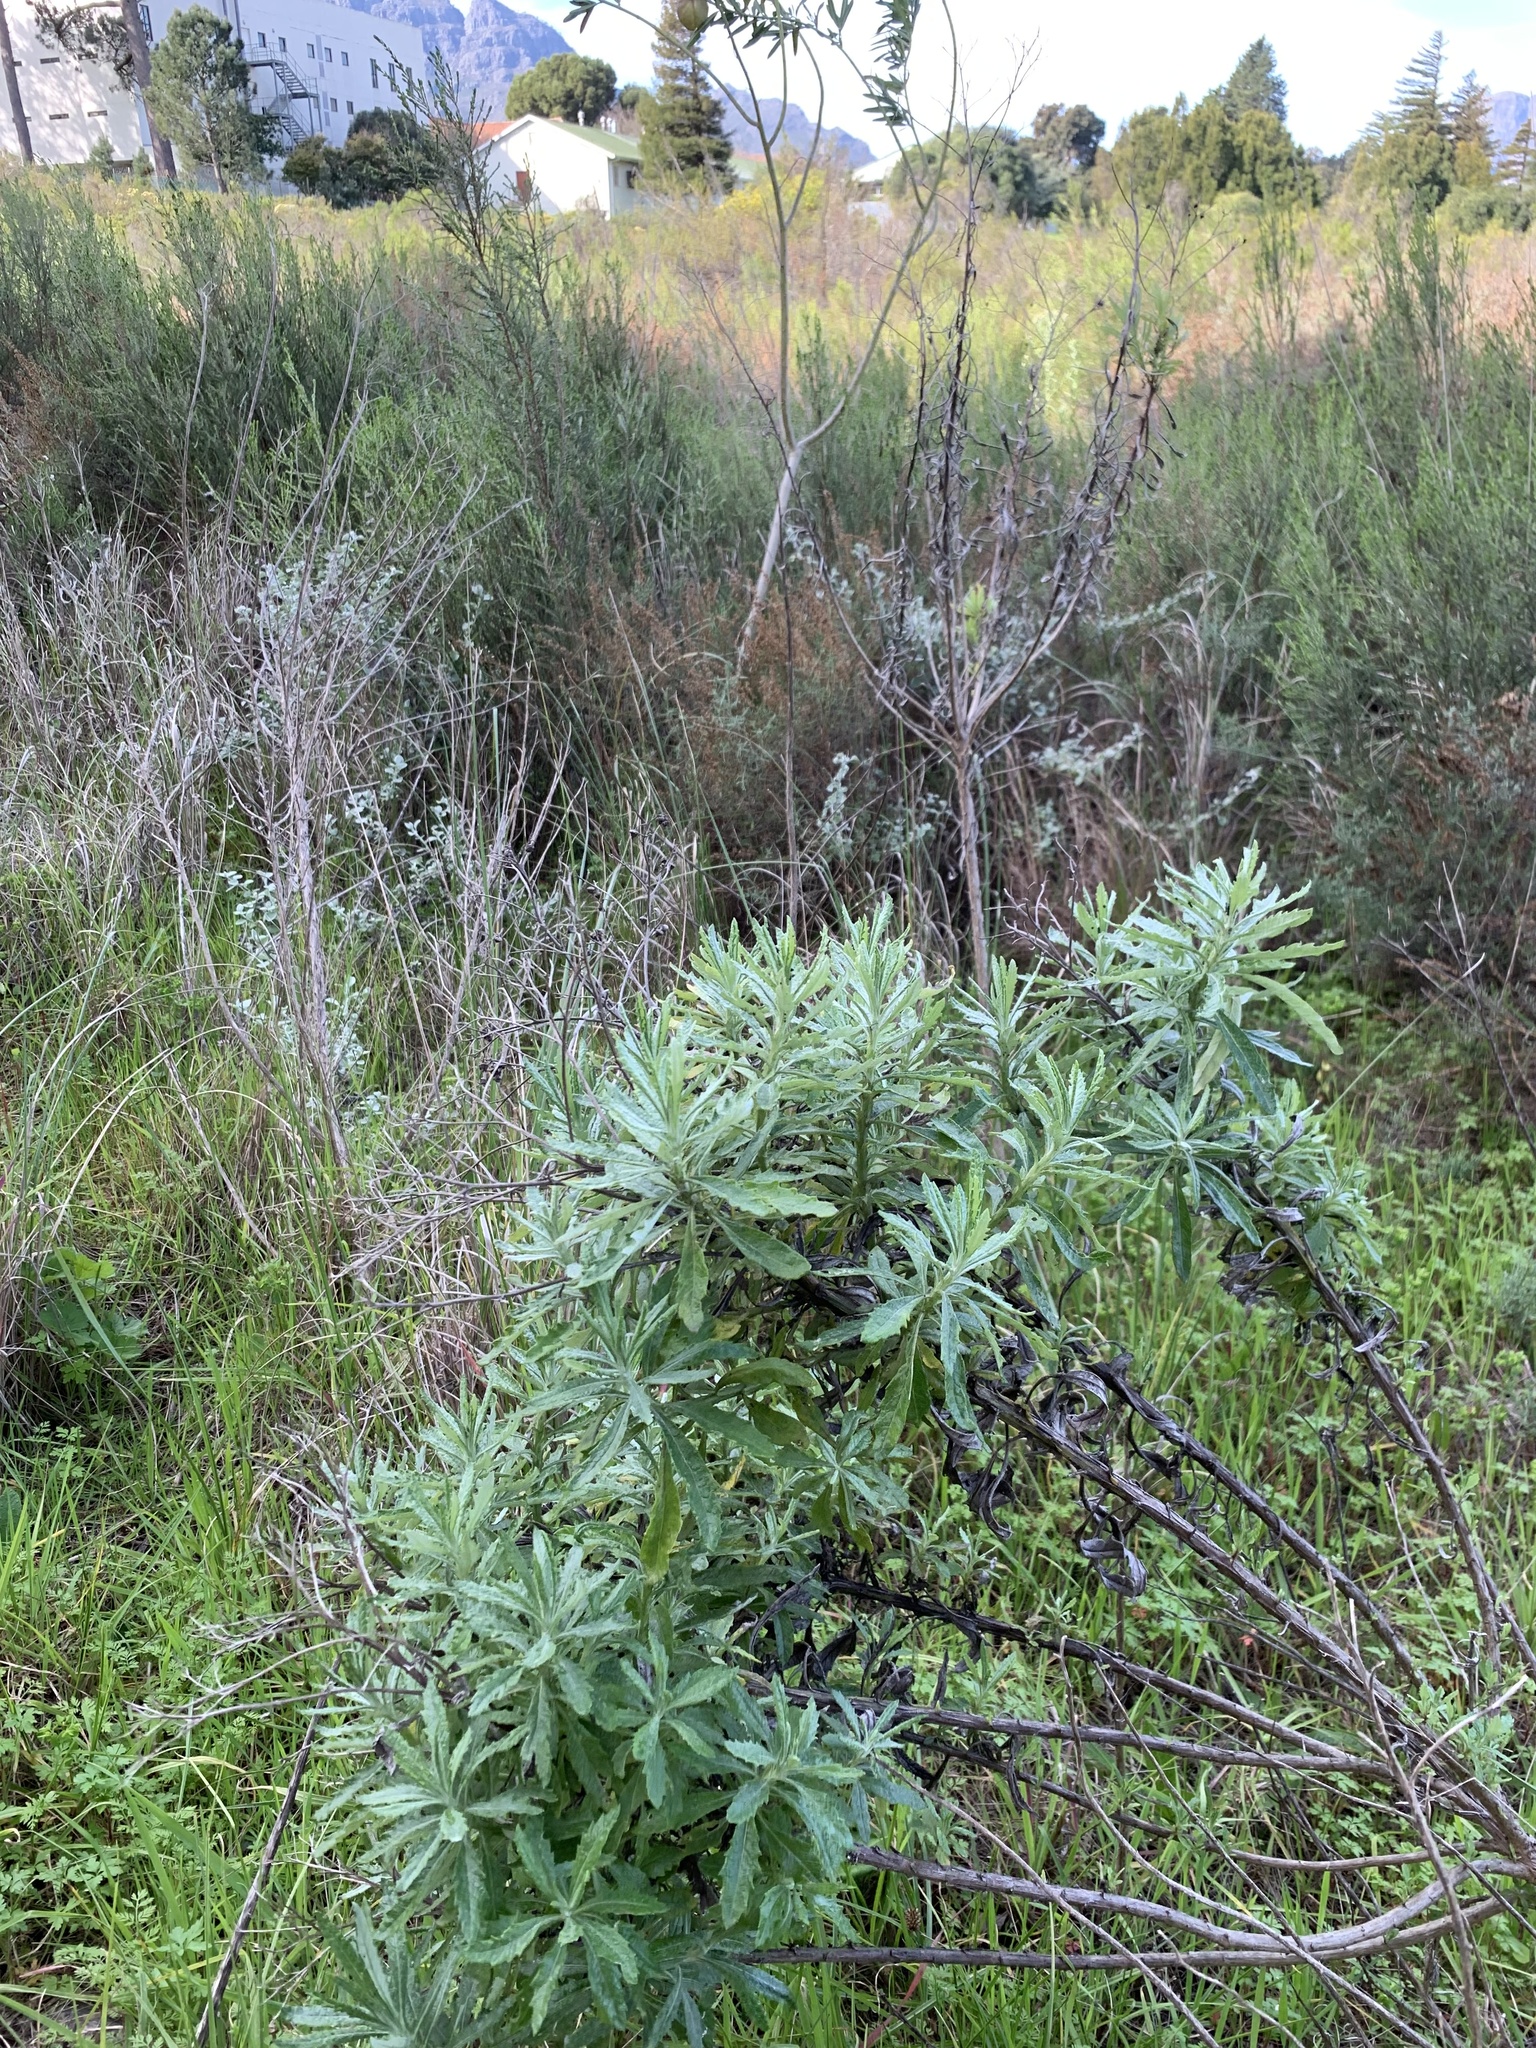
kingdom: Plantae
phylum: Tracheophyta
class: Magnoliopsida
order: Asterales
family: Asteraceae
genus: Senecio
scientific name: Senecio pterophorus
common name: Shoddy ragwort
